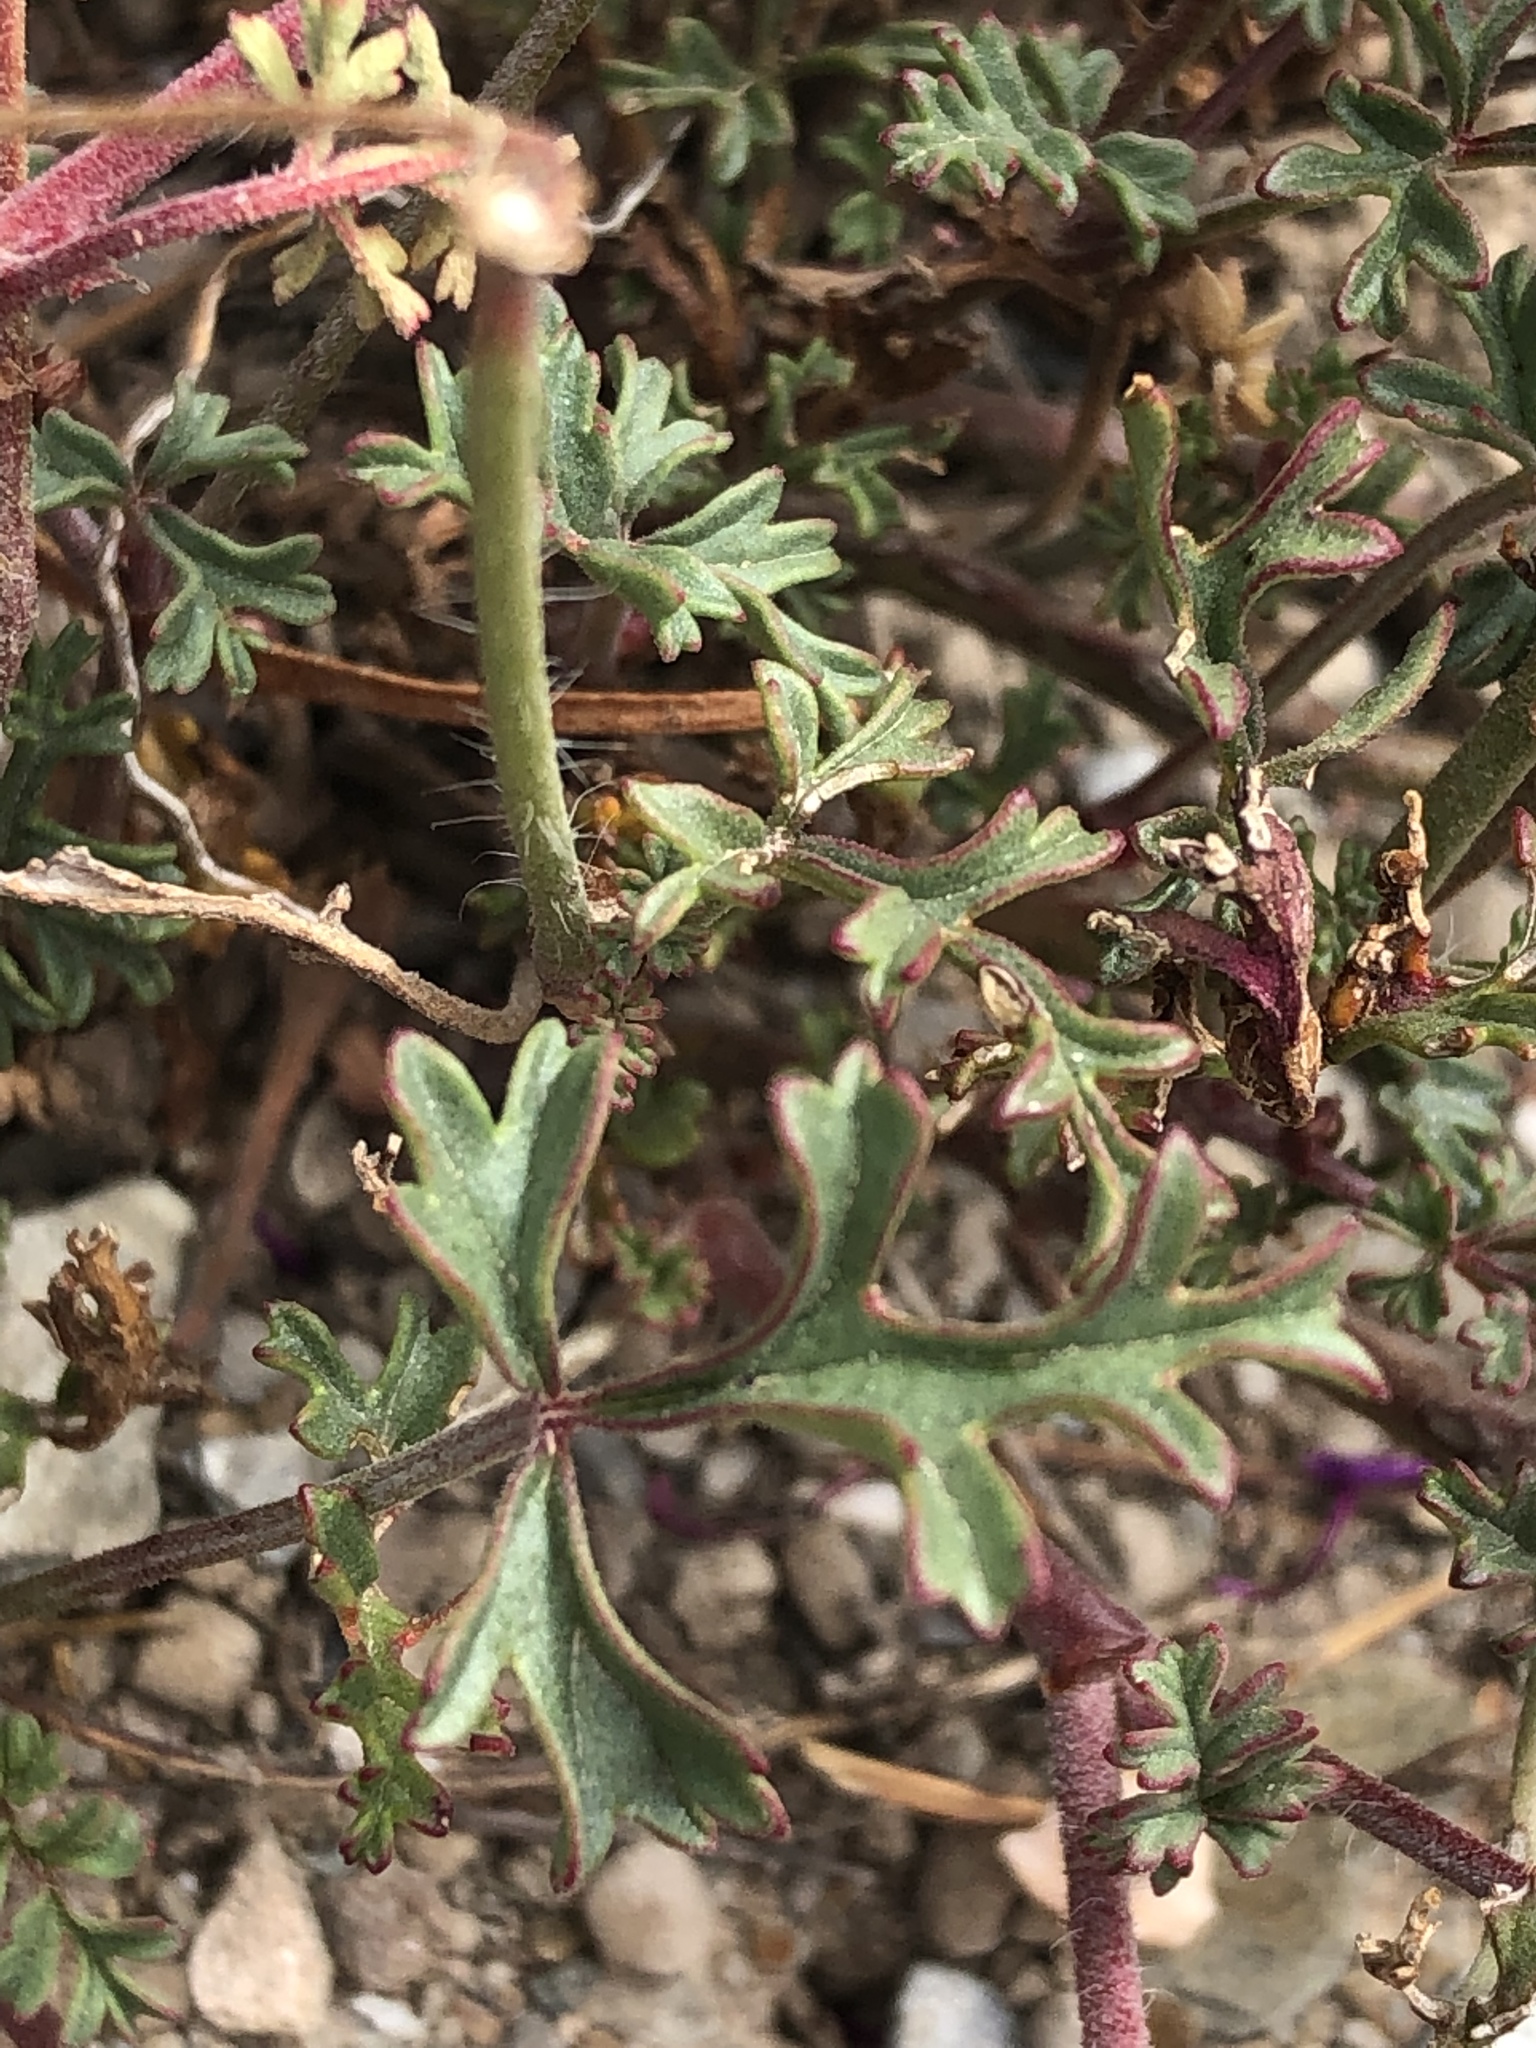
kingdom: Plantae
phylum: Tracheophyta
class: Magnoliopsida
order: Geraniales
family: Geraniaceae
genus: Pelargonium
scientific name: Pelargonium multicaule
